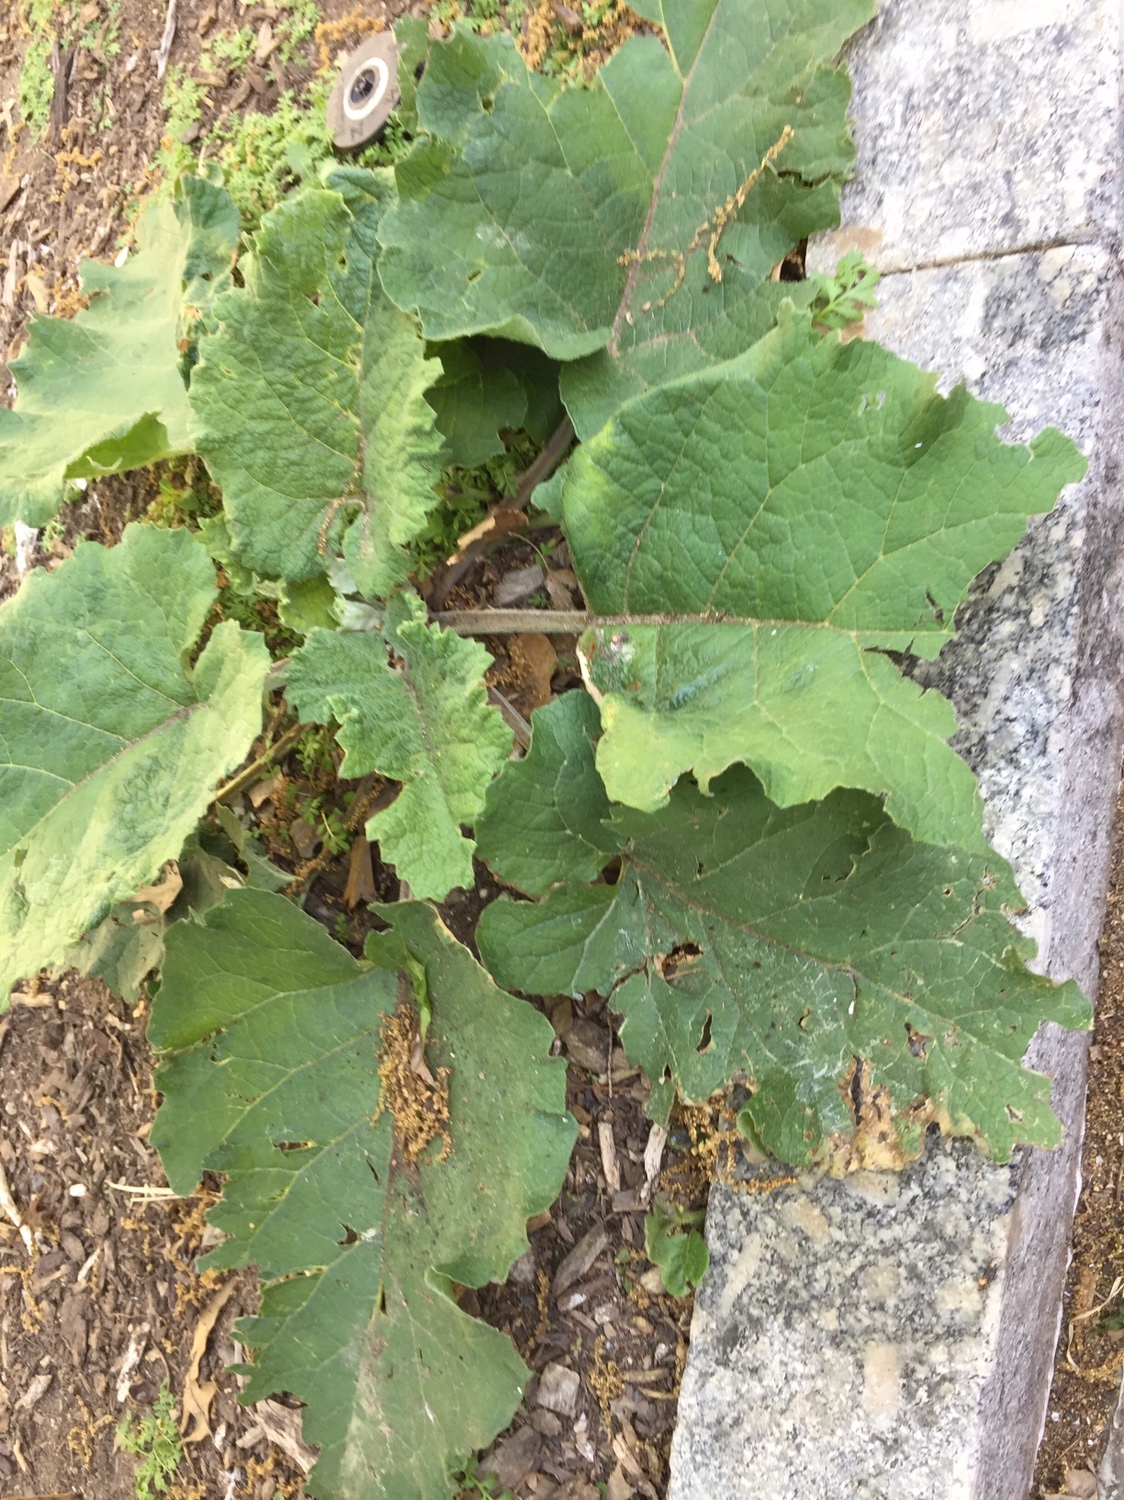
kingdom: Plantae
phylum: Tracheophyta
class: Magnoliopsida
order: Asterales
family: Asteraceae
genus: Arctium
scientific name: Arctium
